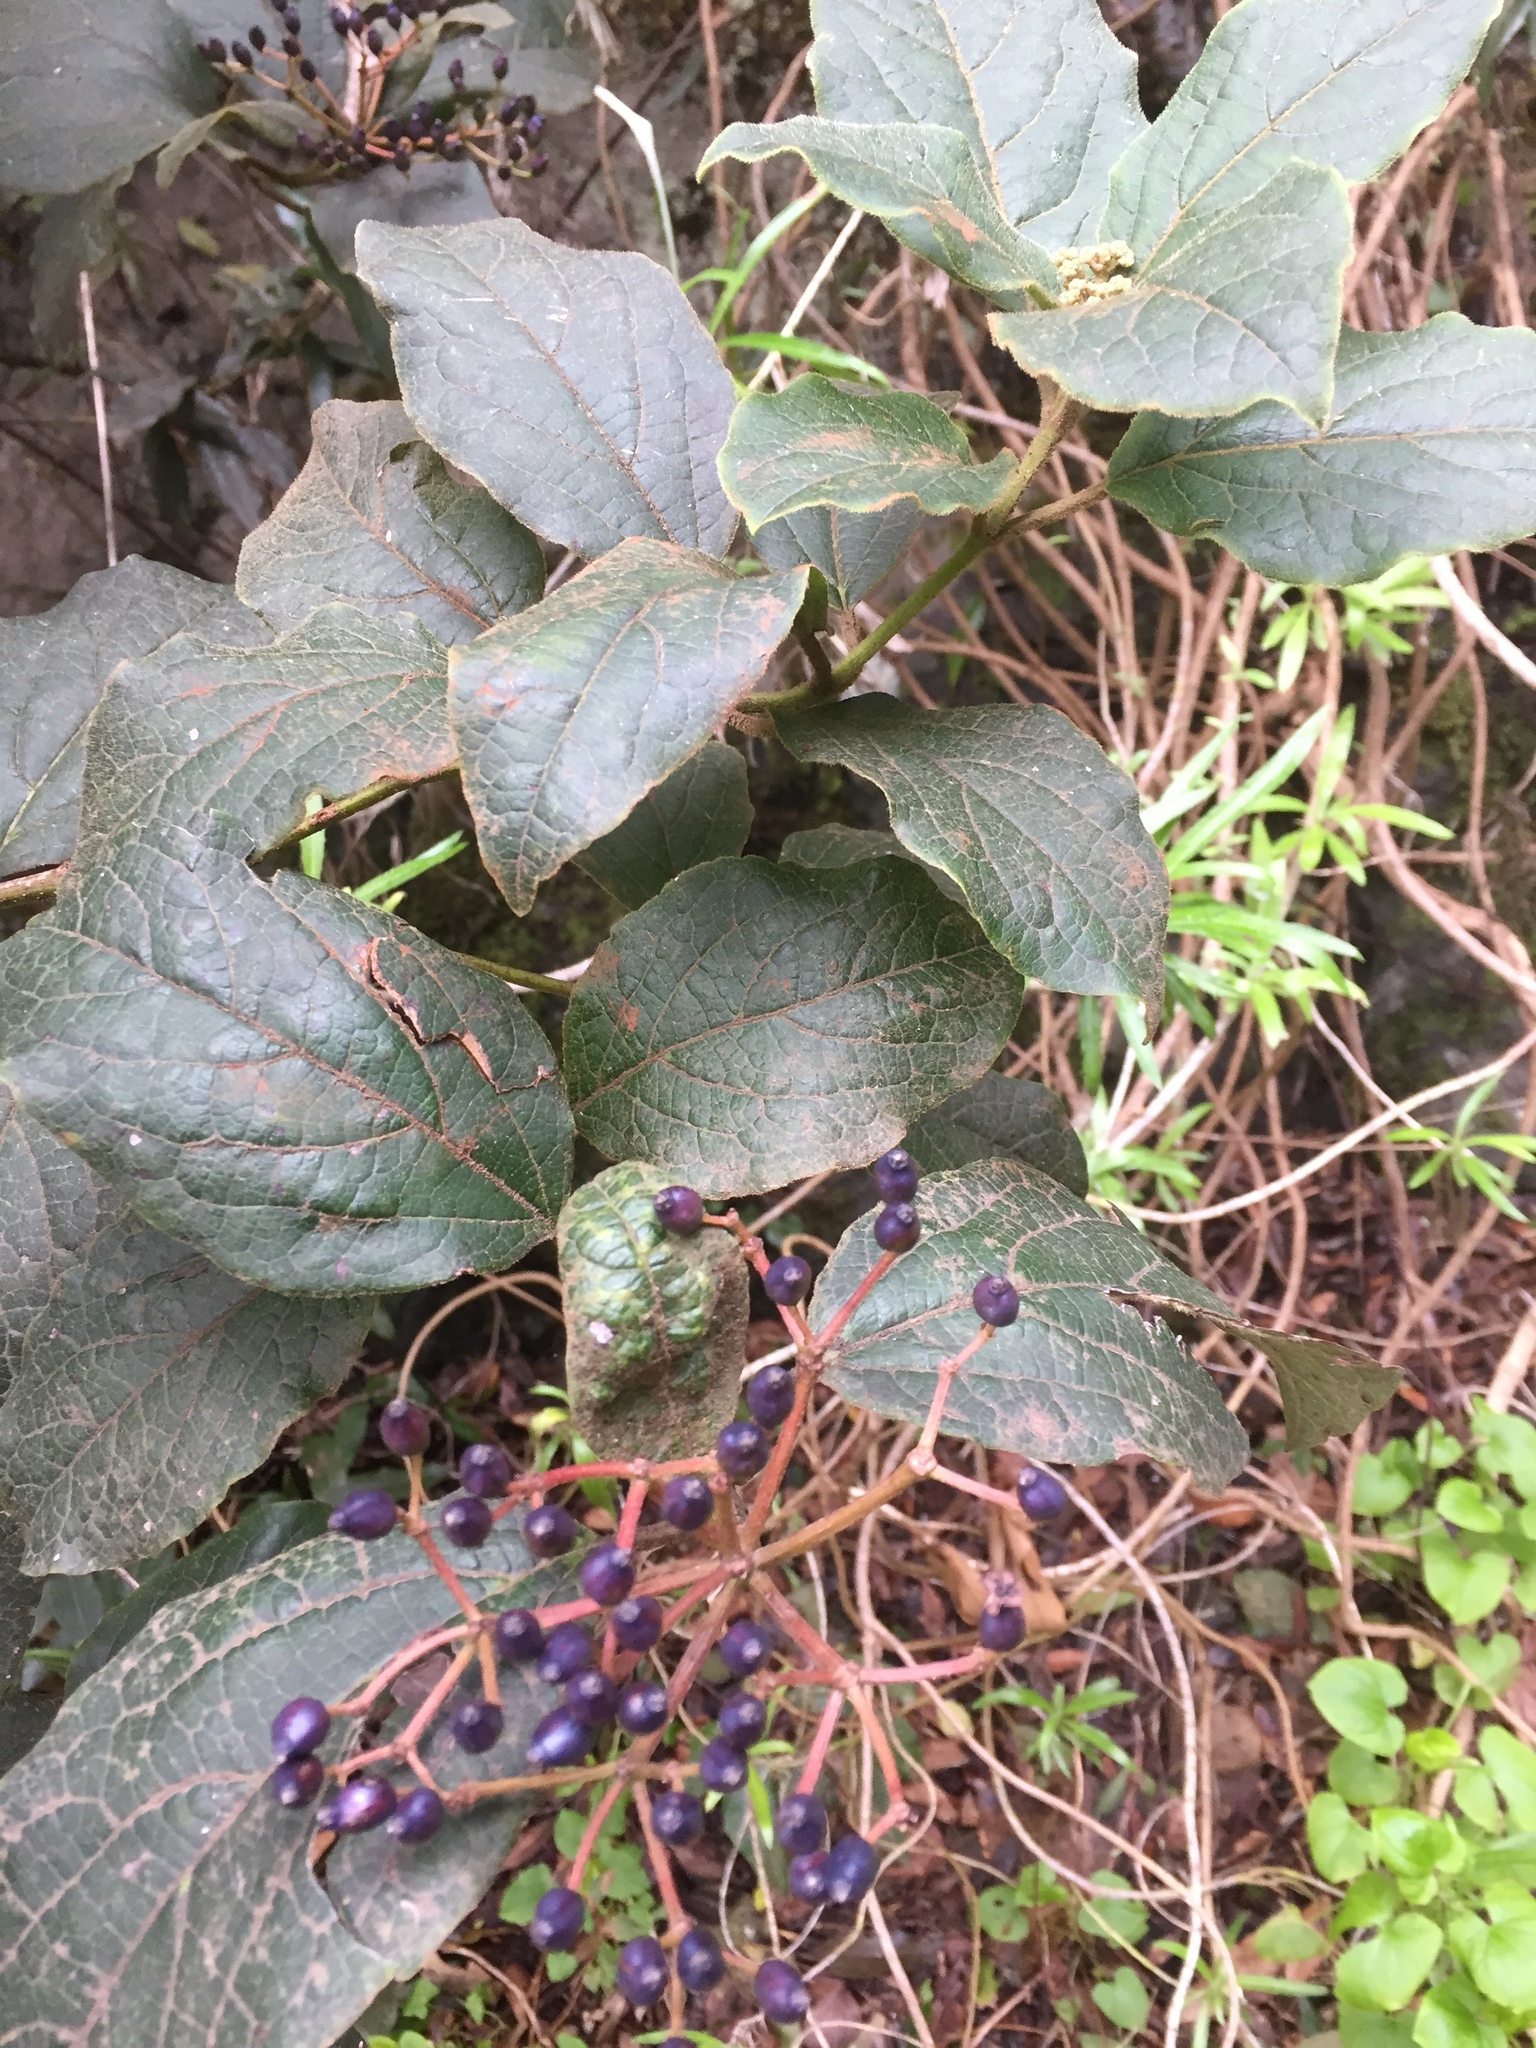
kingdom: Plantae
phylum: Tracheophyta
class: Magnoliopsida
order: Dipsacales
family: Viburnaceae
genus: Viburnum
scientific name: Viburnum rugosum
